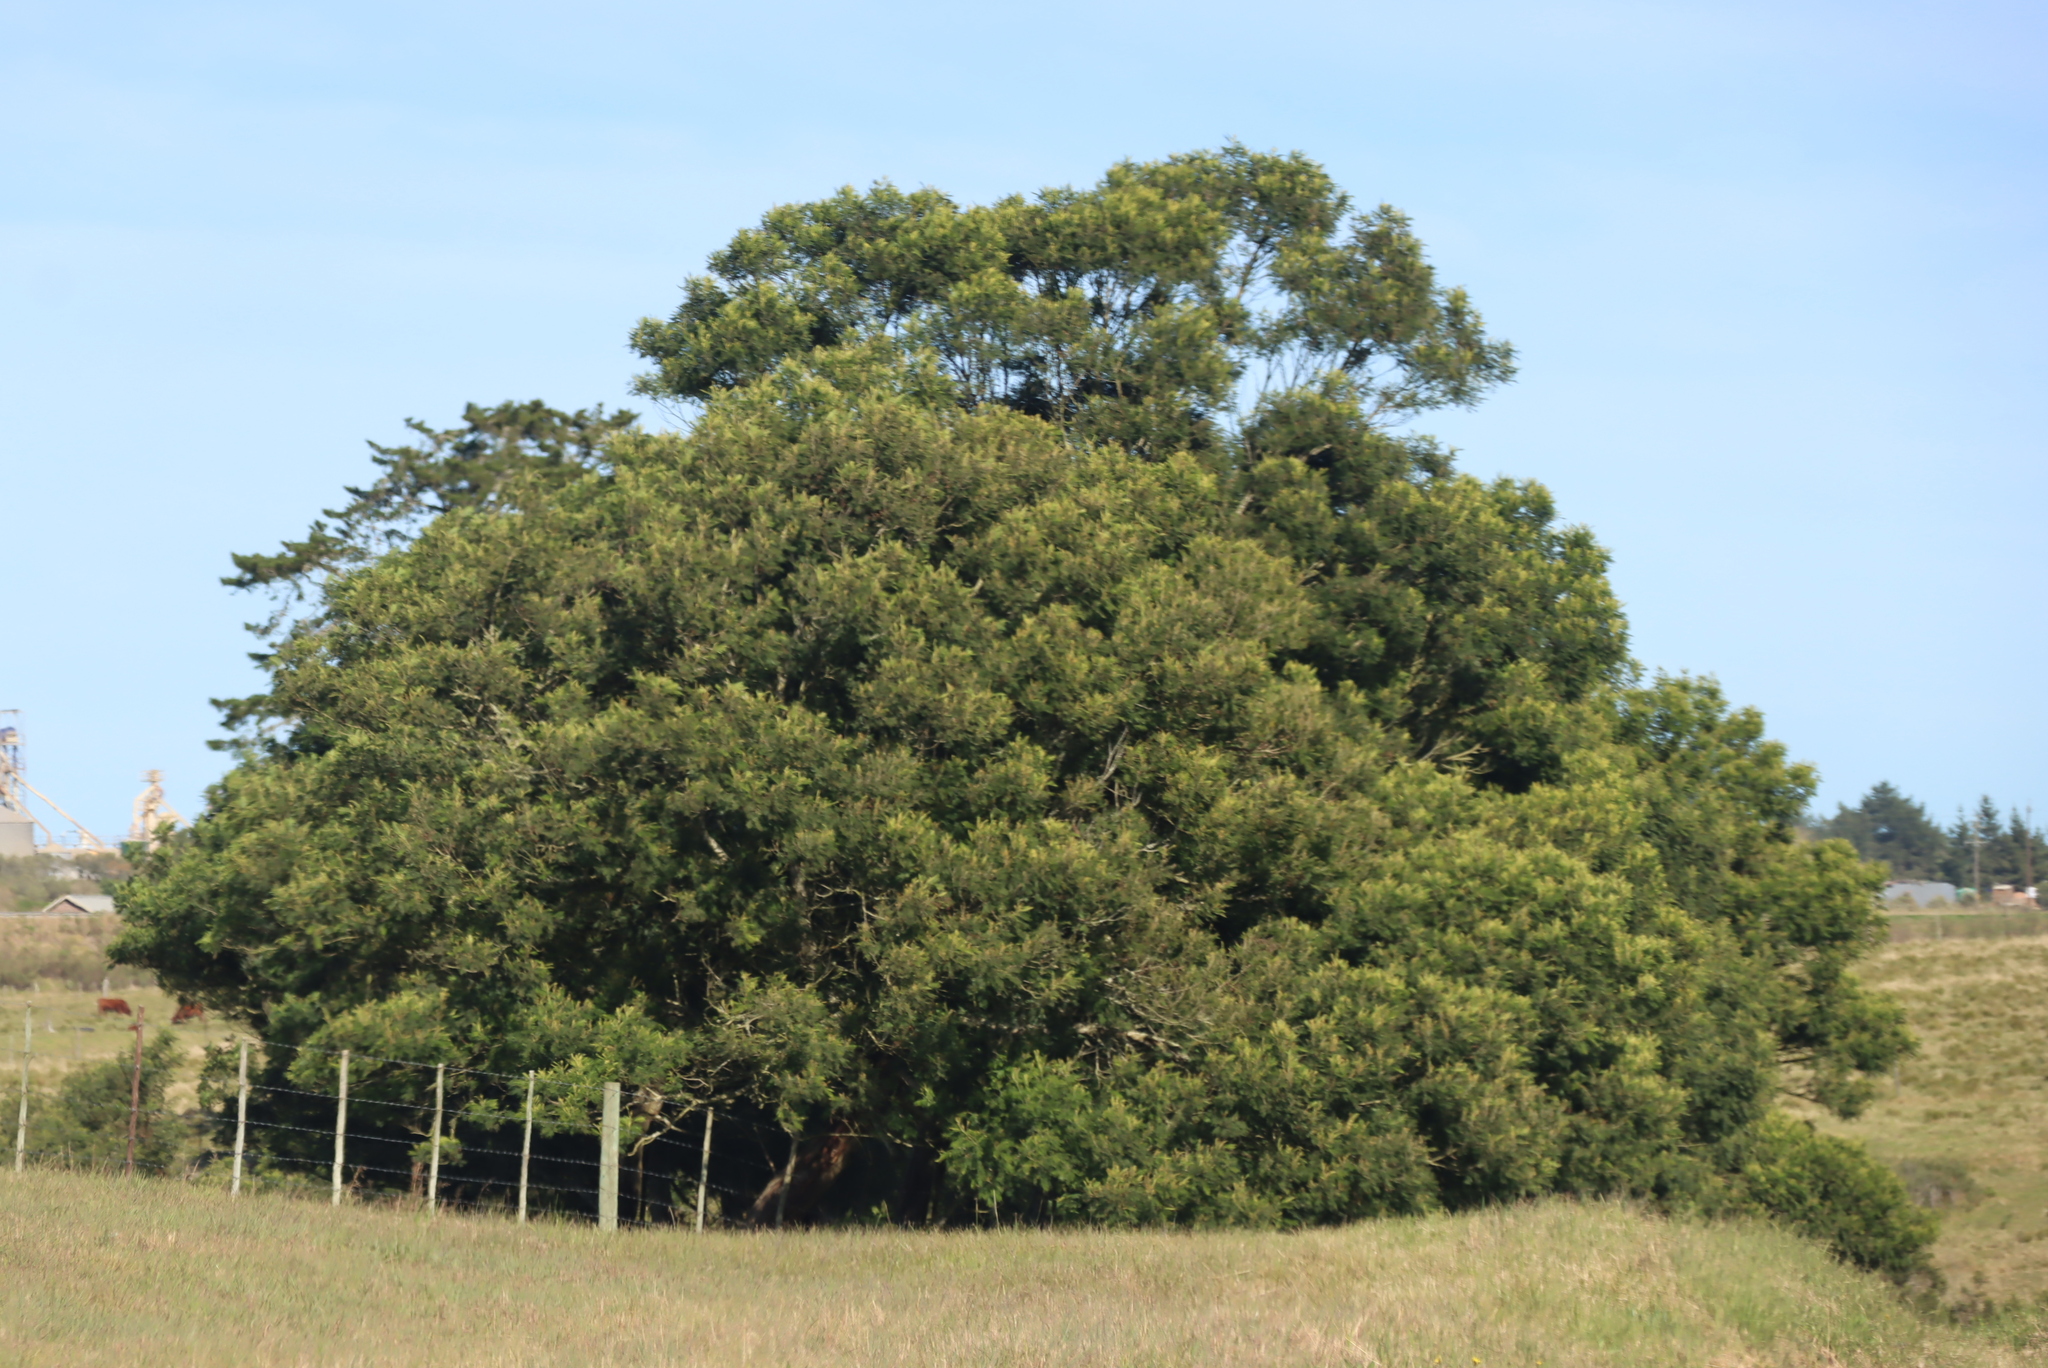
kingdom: Plantae
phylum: Tracheophyta
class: Magnoliopsida
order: Fabales
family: Fabaceae
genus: Acacia
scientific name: Acacia mearnsii
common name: Black wattle
